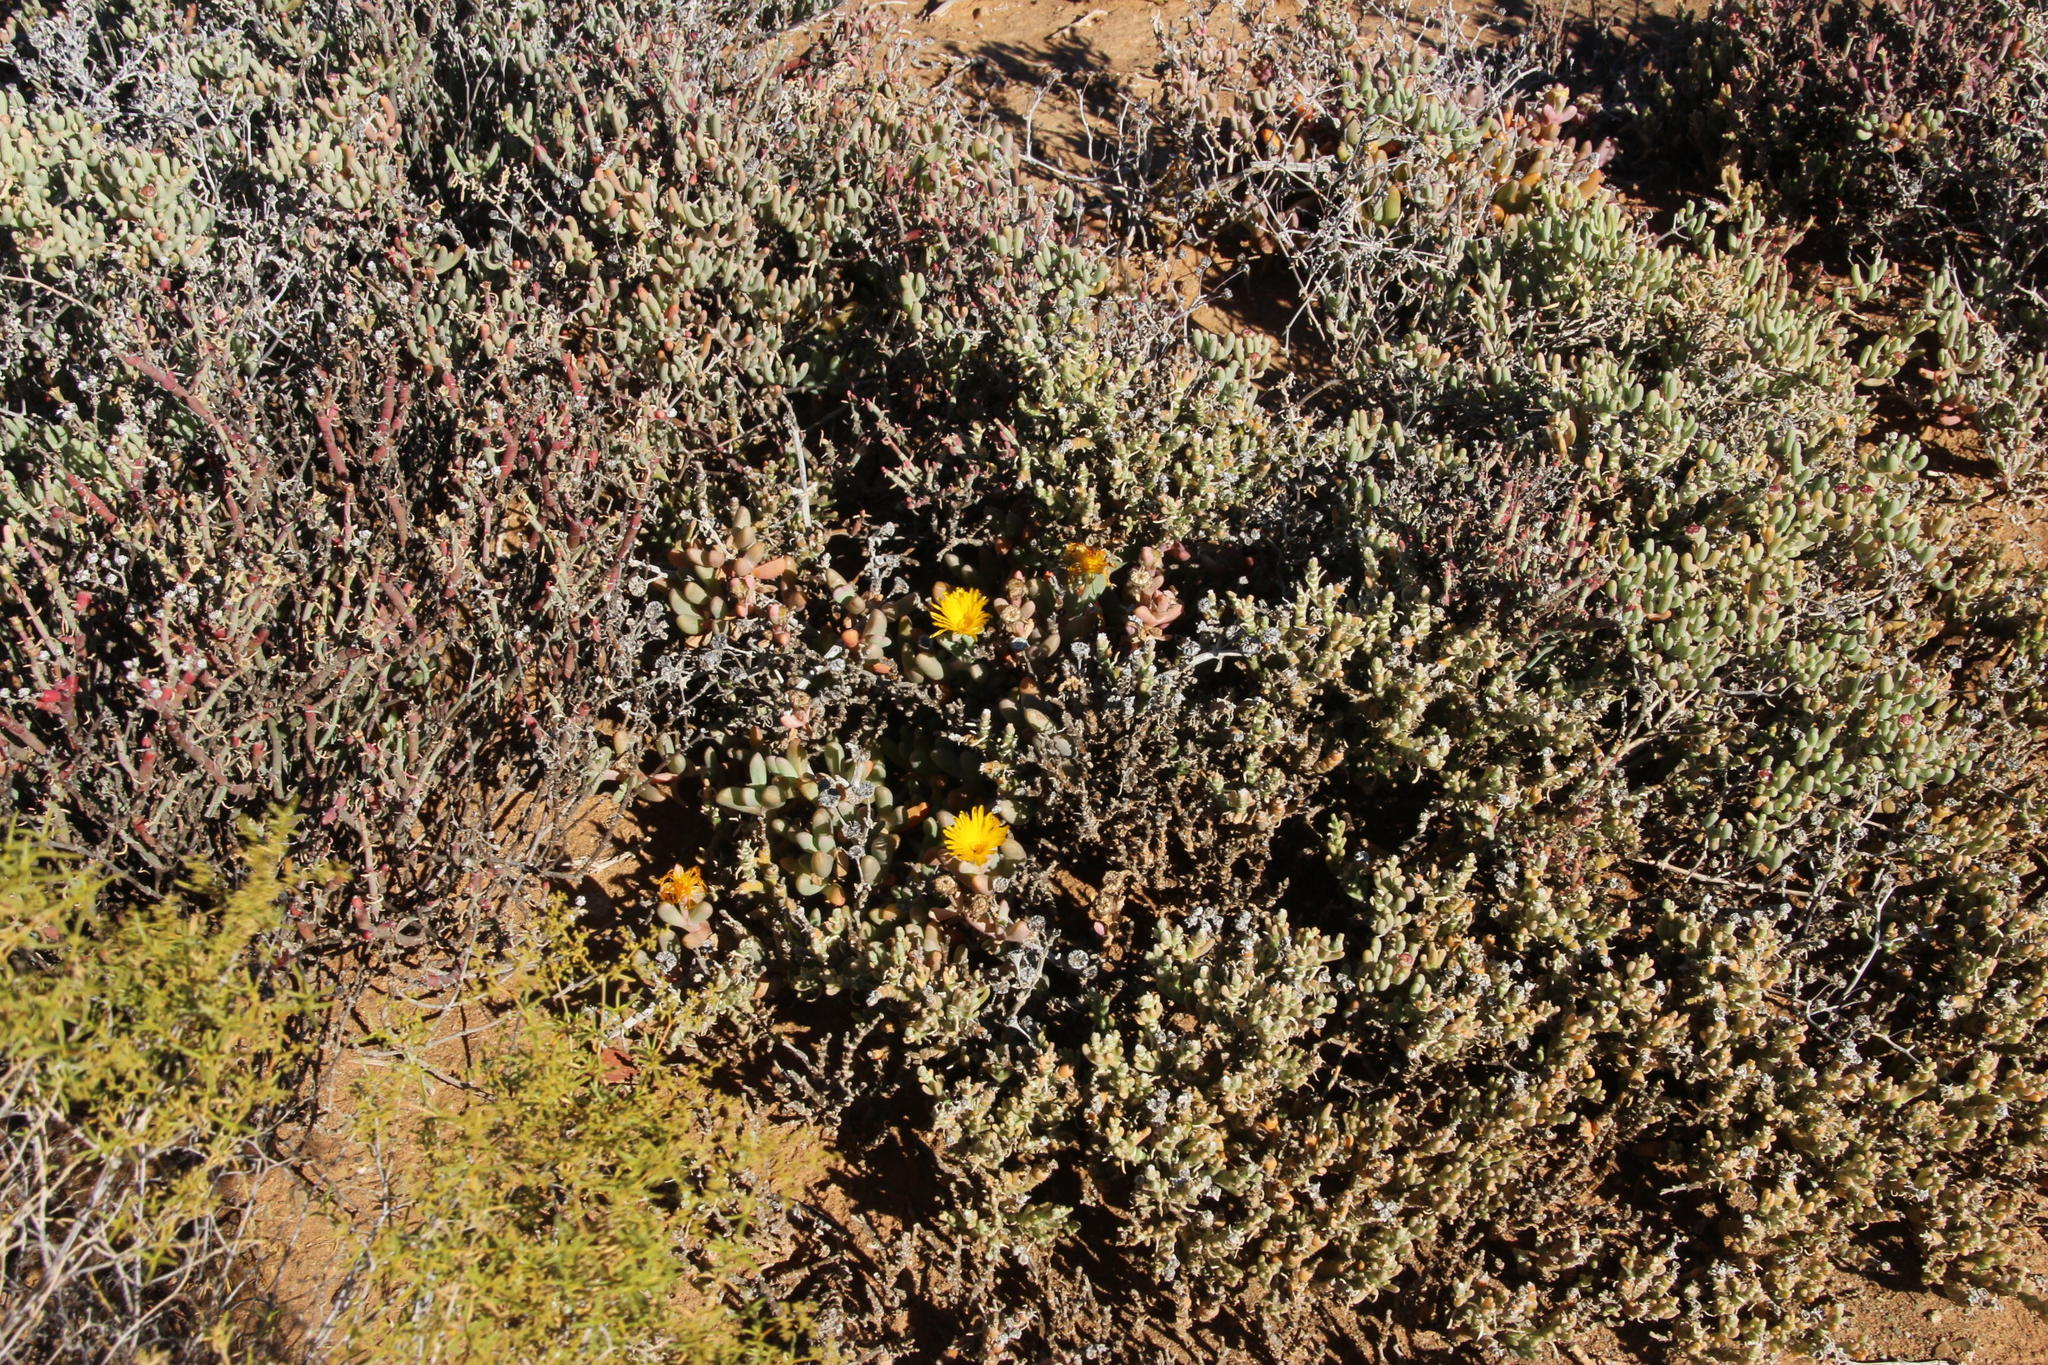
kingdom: Plantae
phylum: Tracheophyta
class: Magnoliopsida
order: Caryophyllales
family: Aizoaceae
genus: Malephora
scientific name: Malephora crassa
